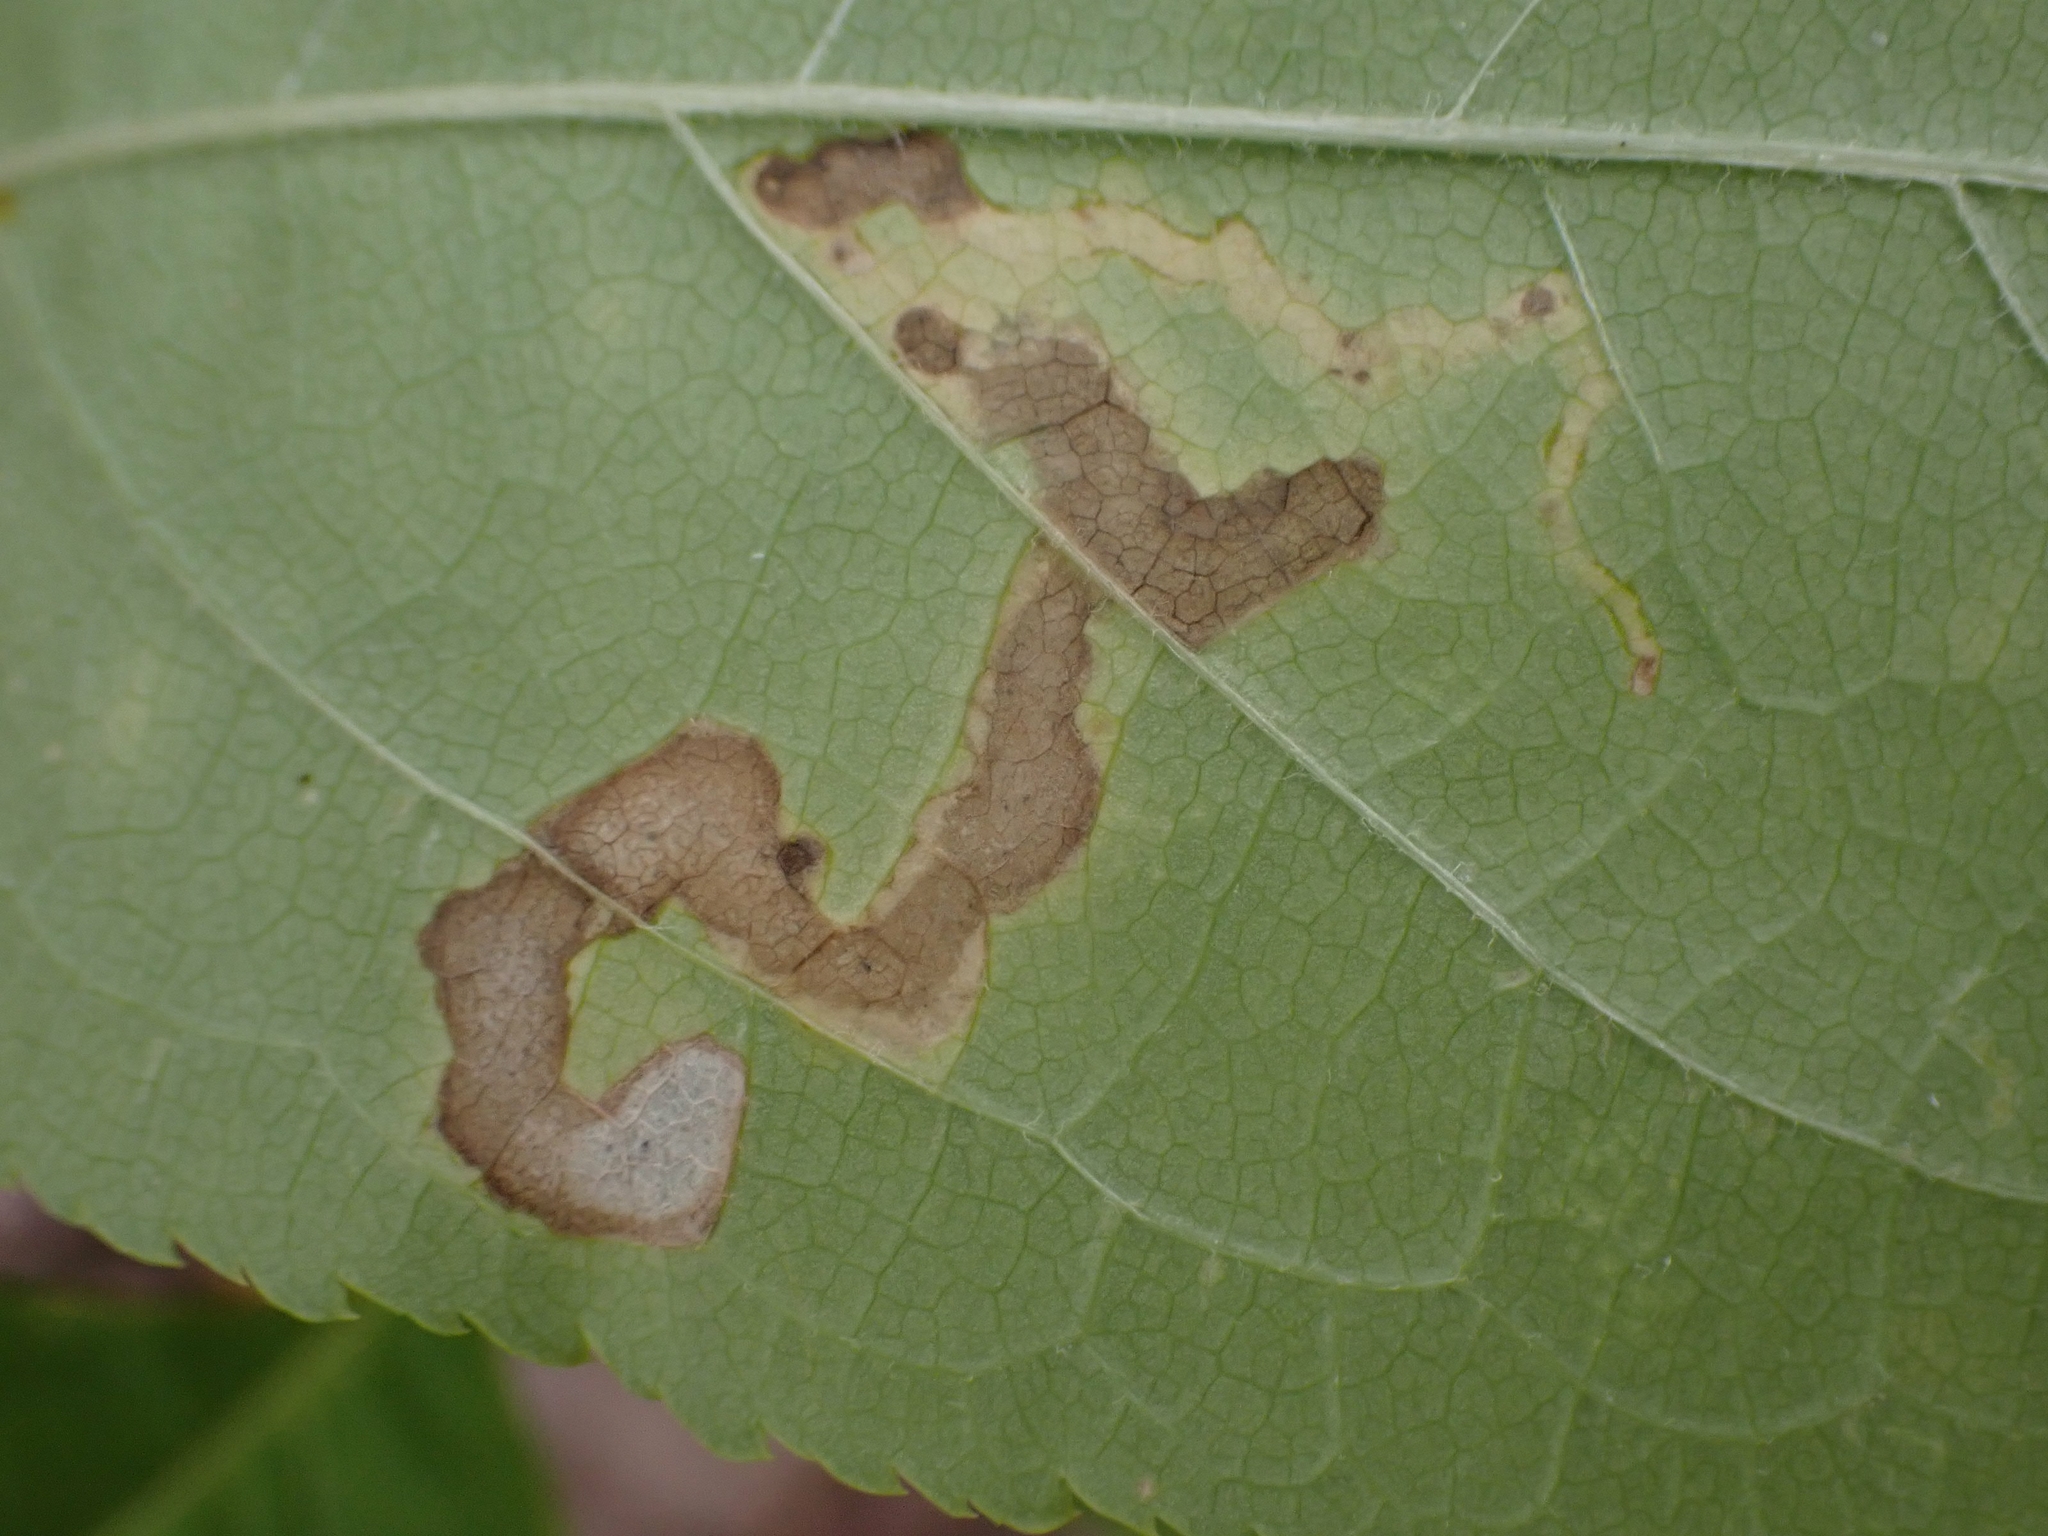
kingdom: Animalia
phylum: Arthropoda
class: Insecta
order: Diptera
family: Agromyzidae
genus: Phytomyza
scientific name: Phytomyza aralivora
